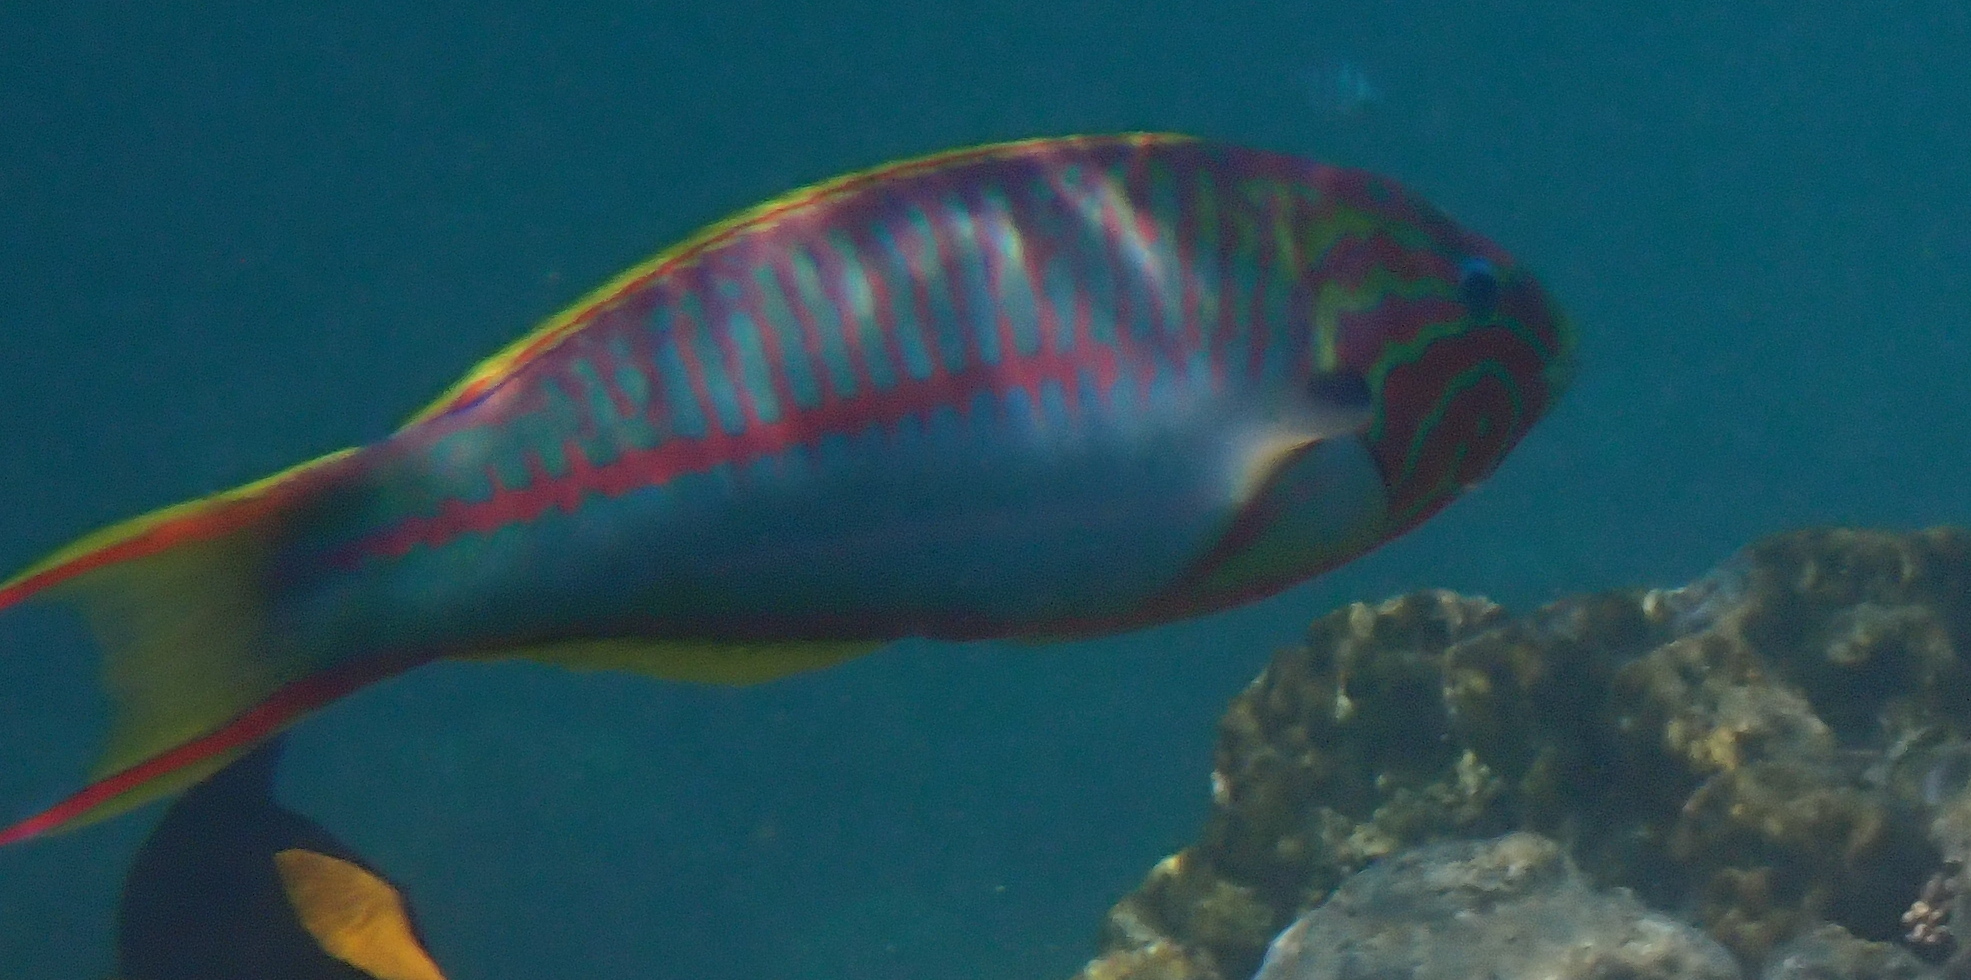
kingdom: Animalia
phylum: Chordata
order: Perciformes
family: Labridae
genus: Thalassoma
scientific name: Thalassoma rueppellii
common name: Klunzinger's wrasse
